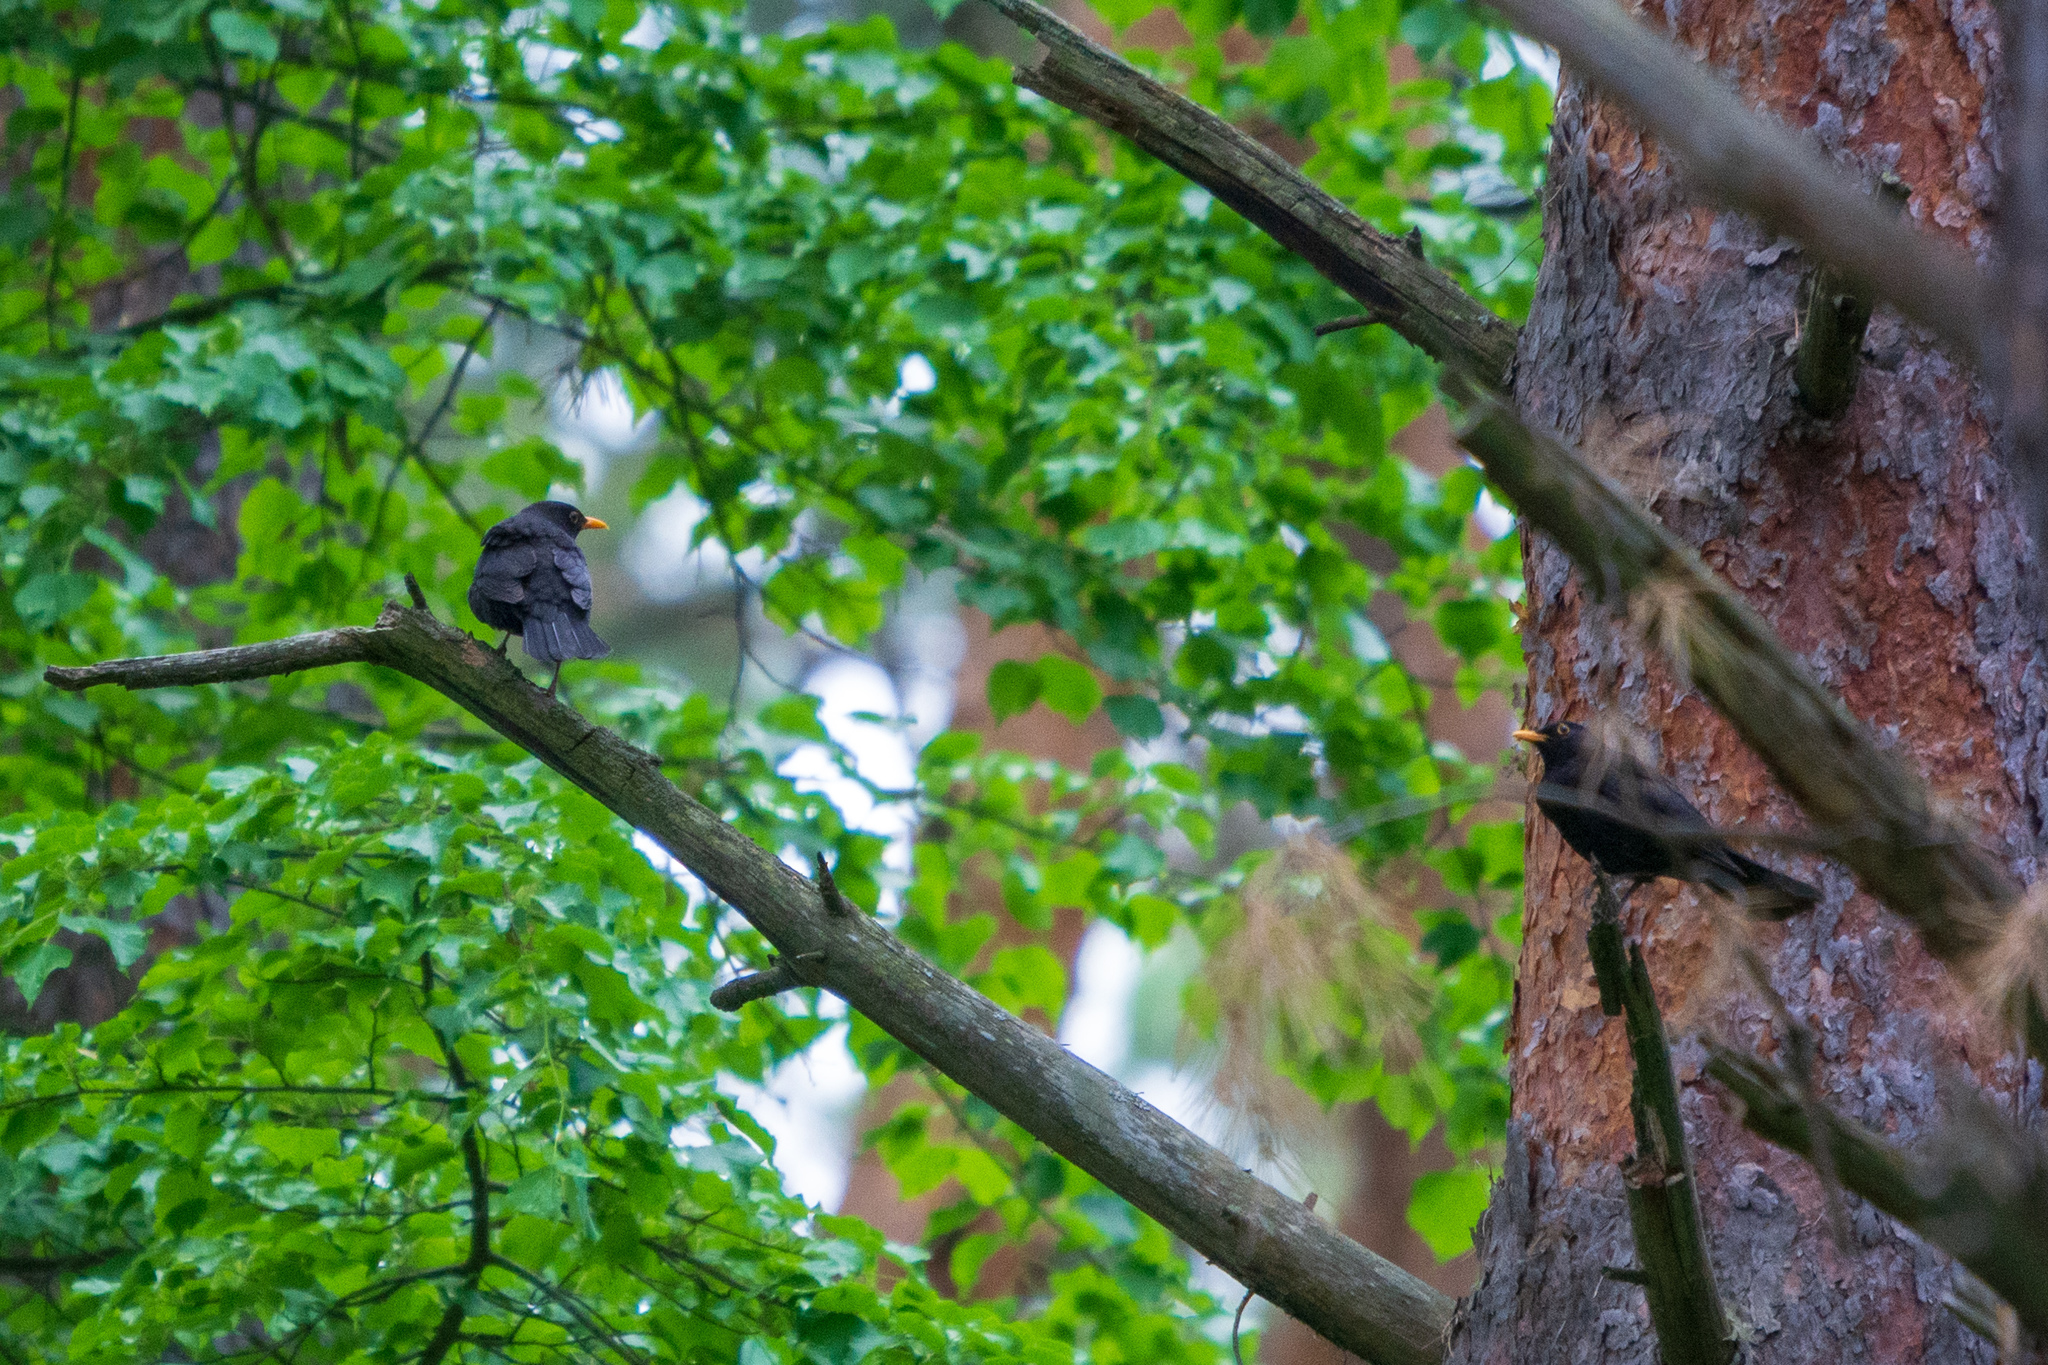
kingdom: Animalia
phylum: Chordata
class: Aves
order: Passeriformes
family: Turdidae
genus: Turdus
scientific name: Turdus merula
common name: Common blackbird
